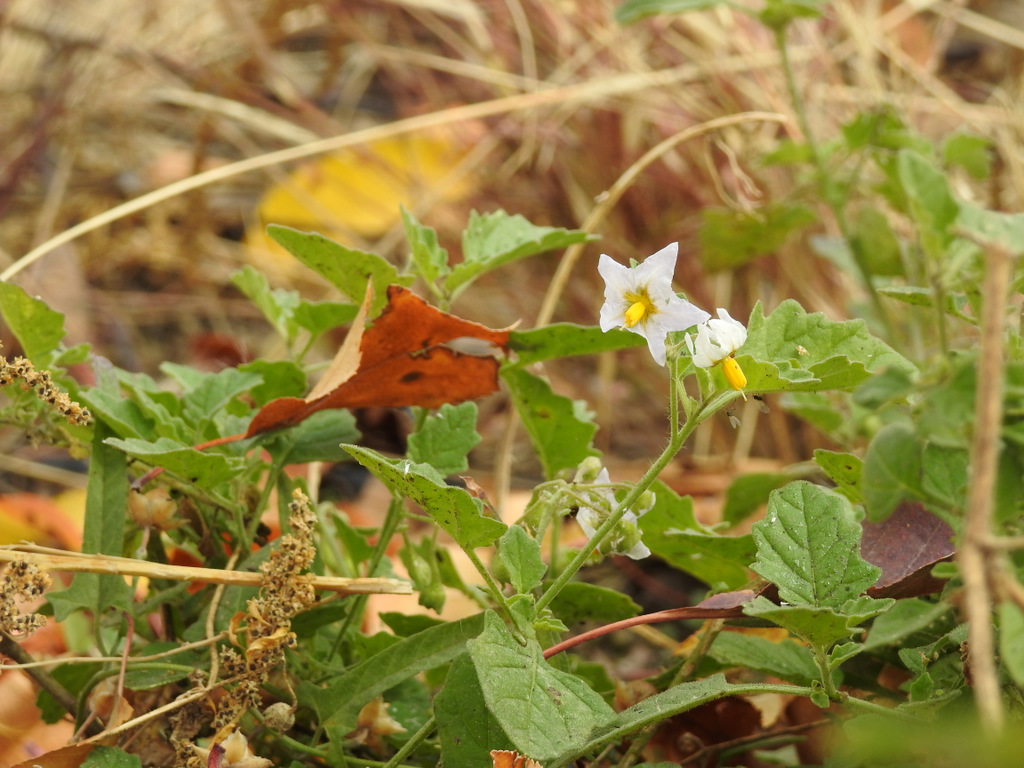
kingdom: Plantae
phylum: Tracheophyta
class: Magnoliopsida
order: Solanales
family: Solanaceae
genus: Solanum
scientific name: Solanum tweedianum
